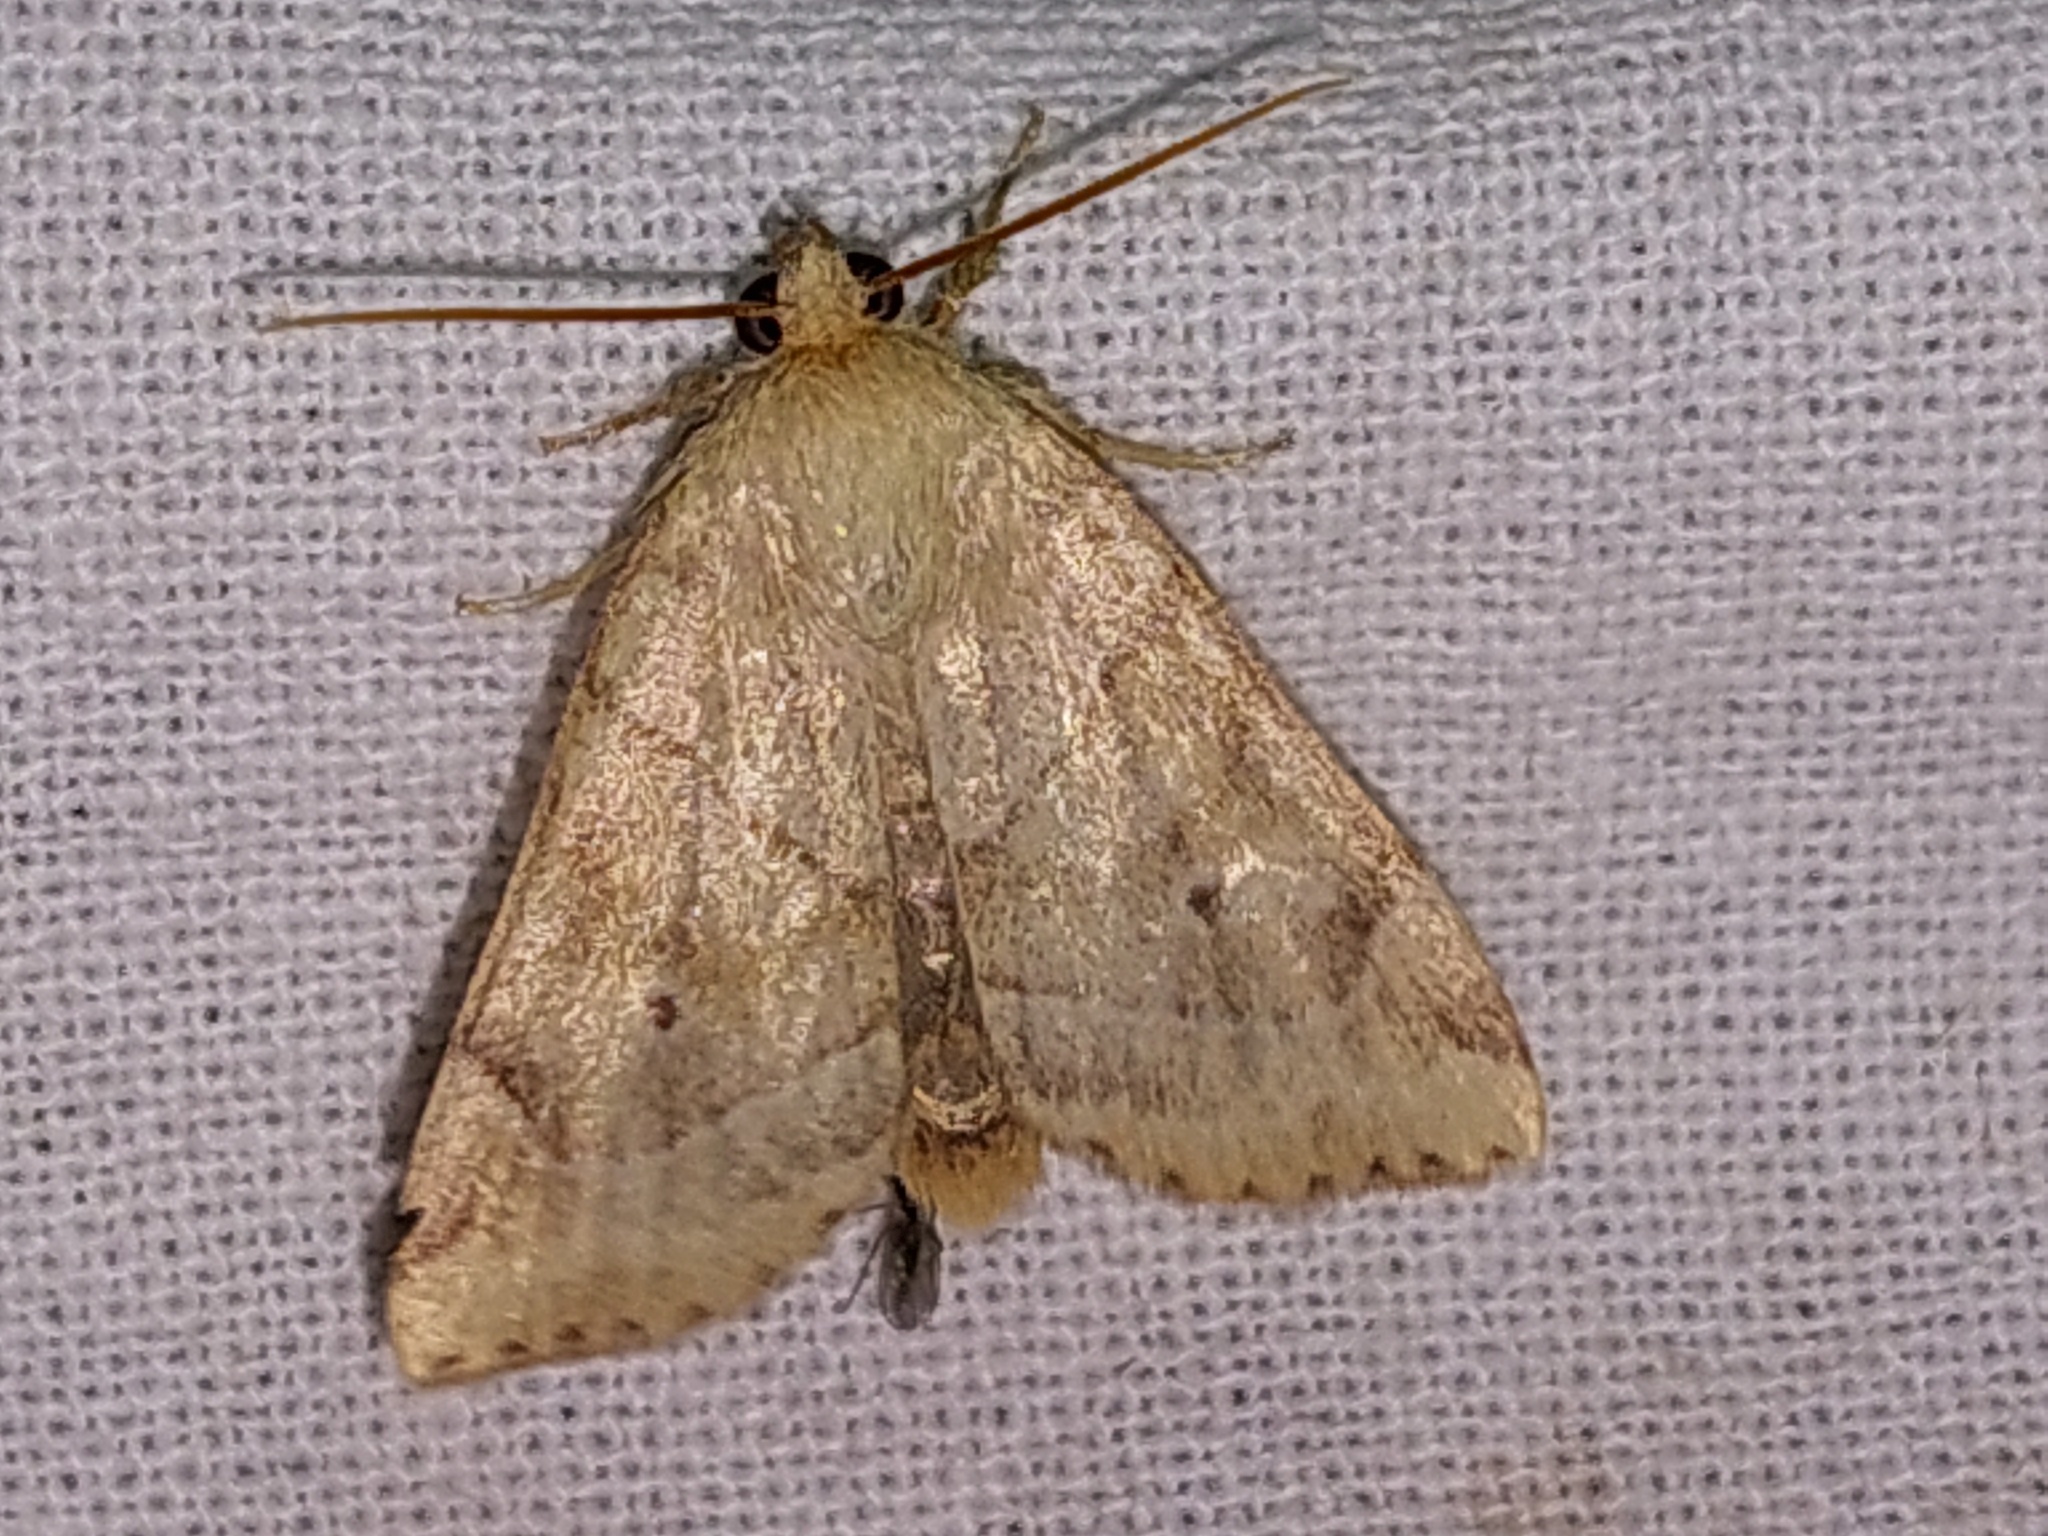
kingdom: Animalia
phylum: Arthropoda
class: Insecta
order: Lepidoptera
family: Noctuidae
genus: Cosmia
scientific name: Cosmia trapezina
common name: Dun-bar
